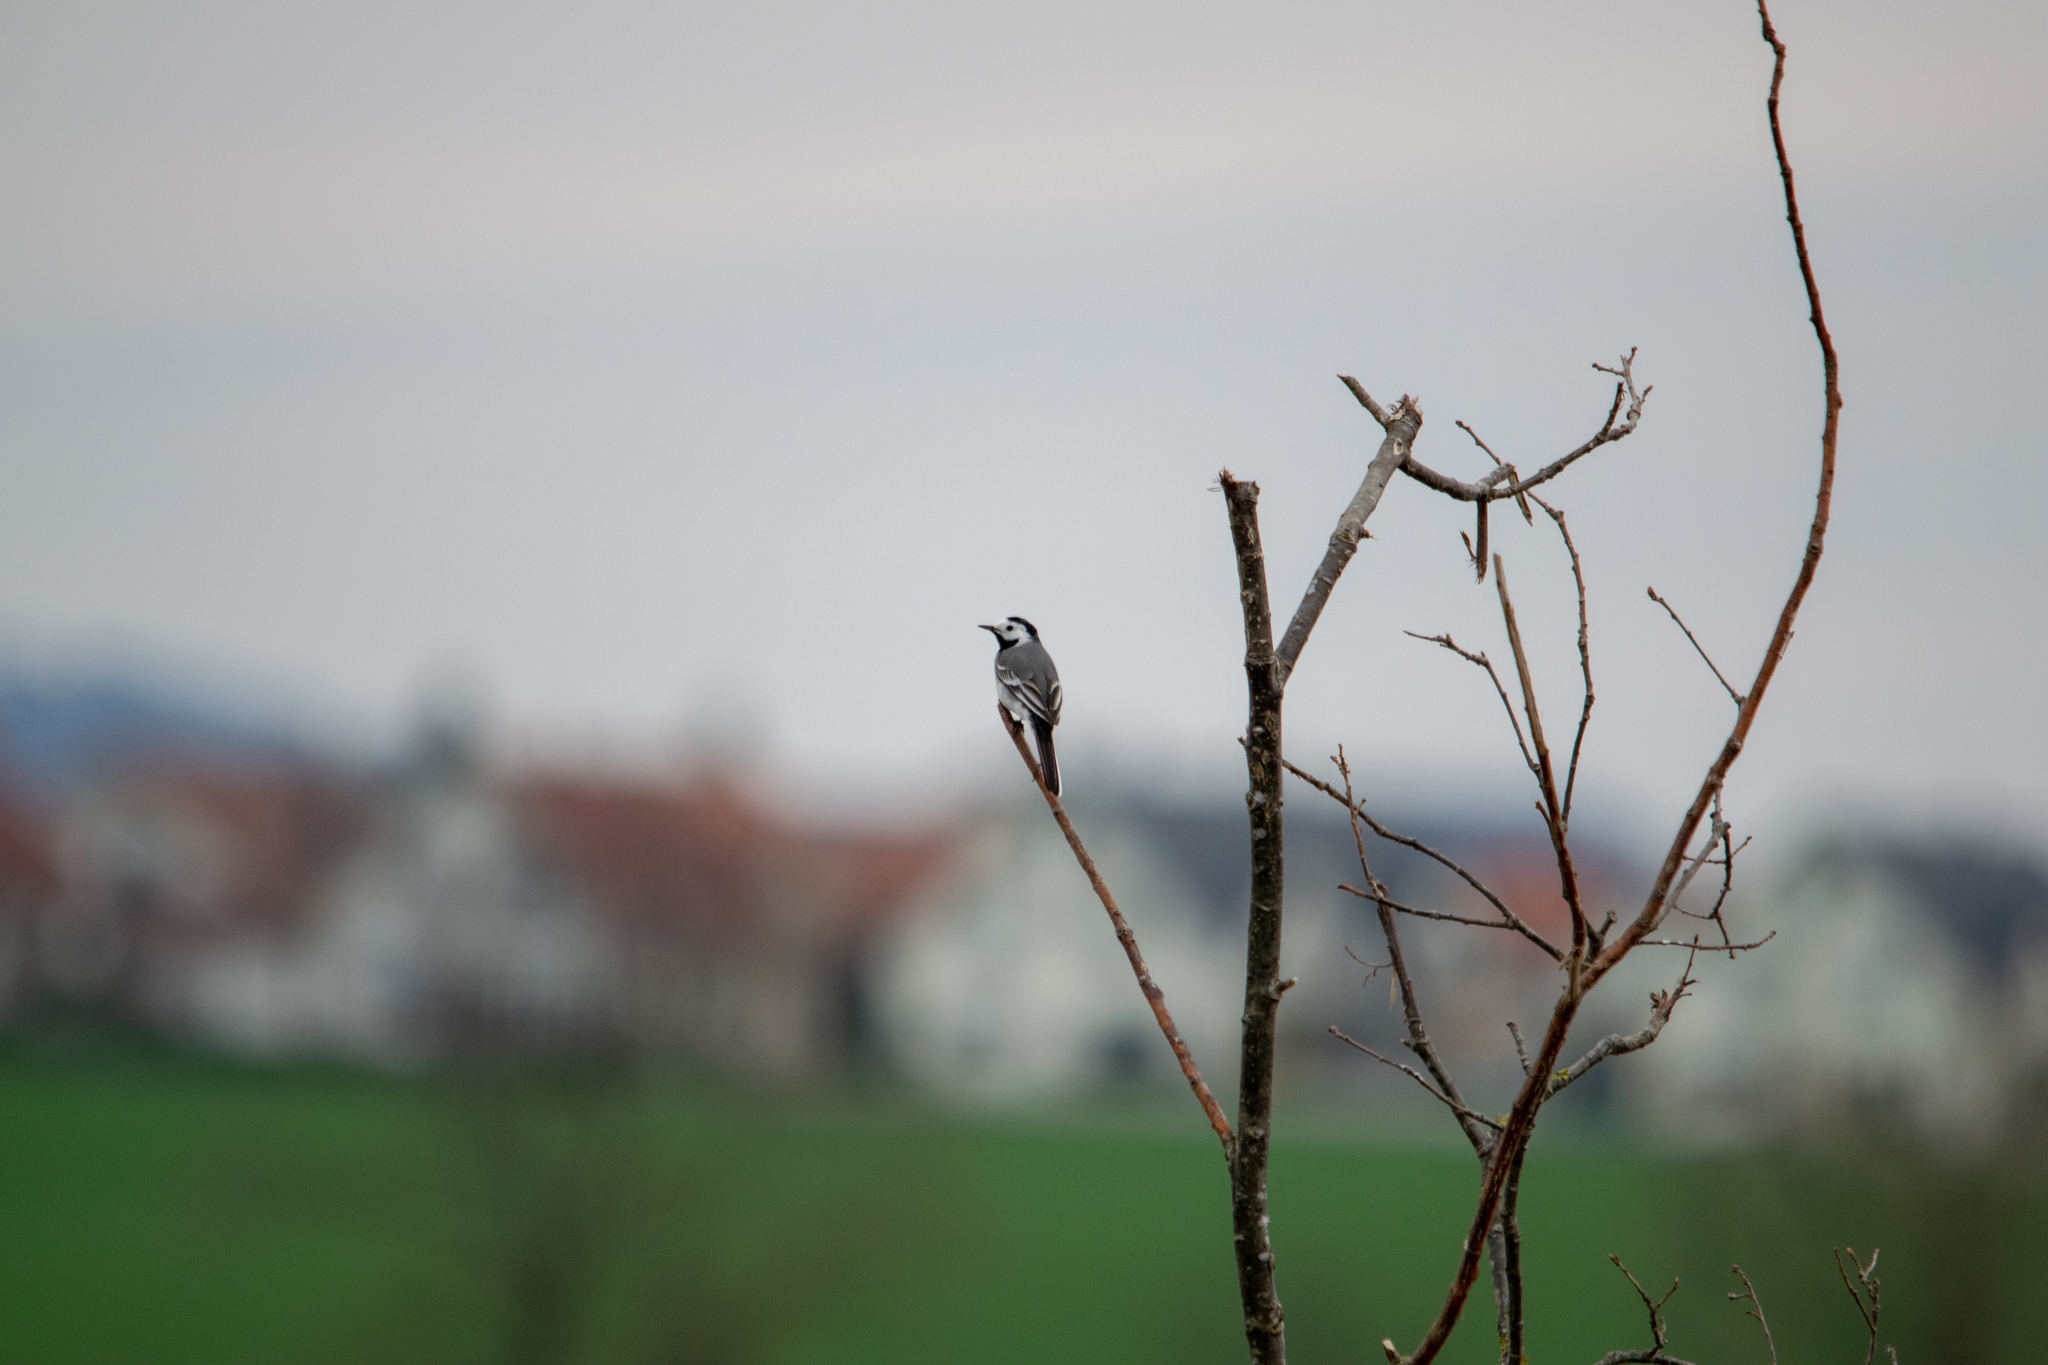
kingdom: Animalia
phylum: Chordata
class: Aves
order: Passeriformes
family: Motacillidae
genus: Motacilla
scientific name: Motacilla alba
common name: White wagtail
